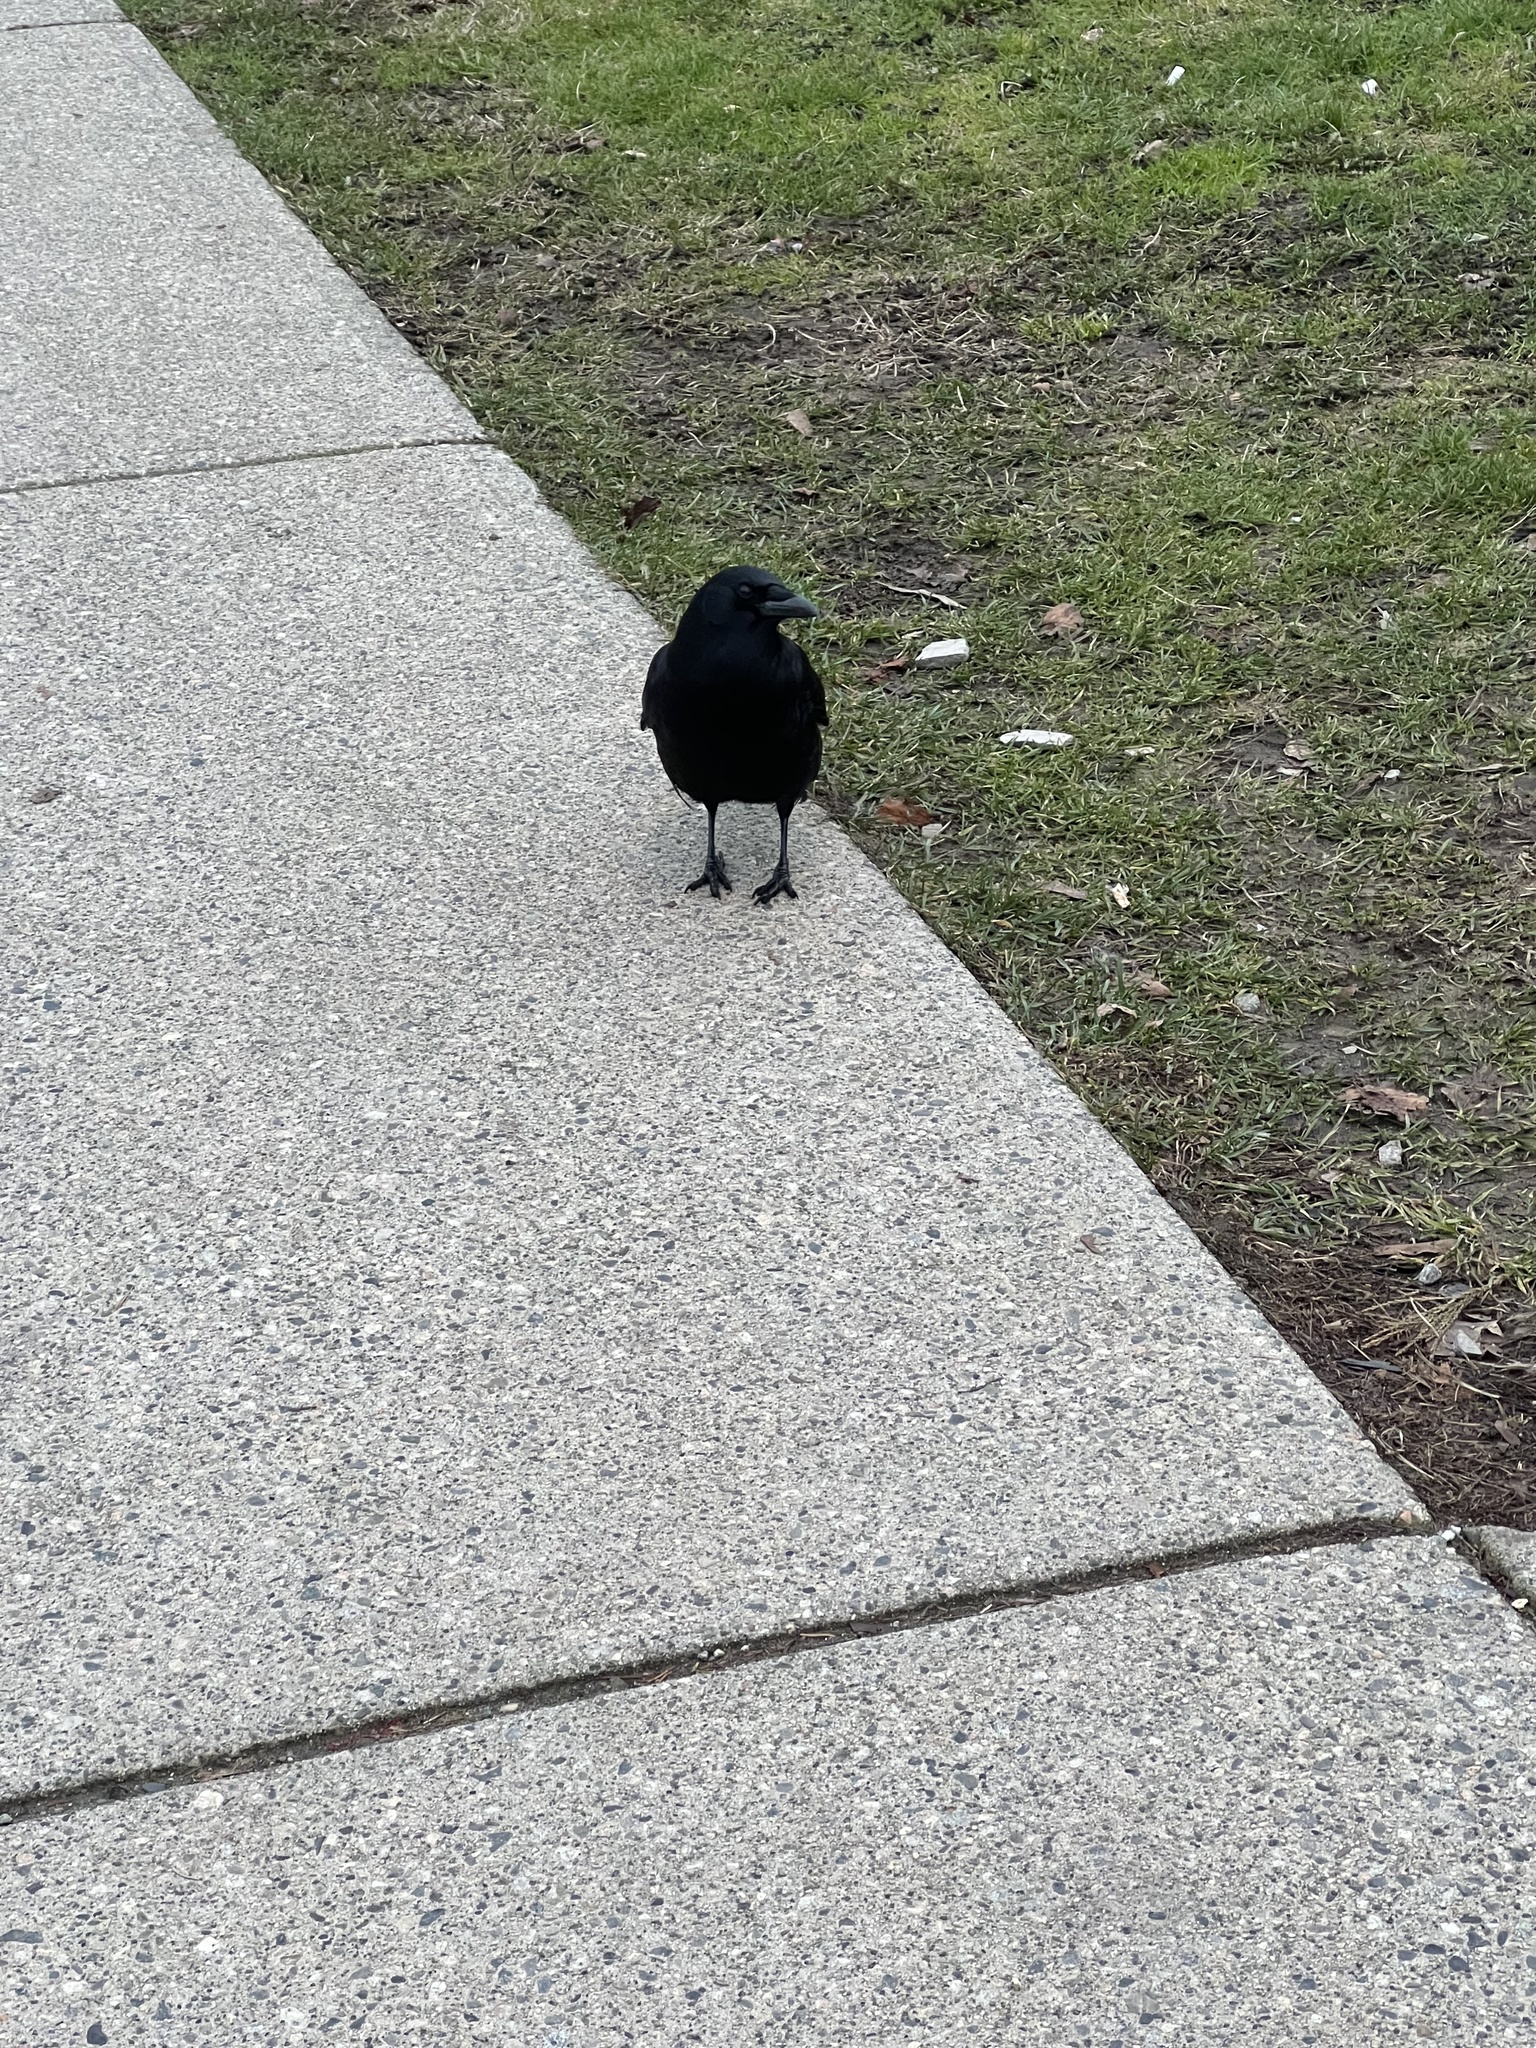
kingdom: Animalia
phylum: Chordata
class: Aves
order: Passeriformes
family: Corvidae
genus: Corvus
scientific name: Corvus brachyrhynchos
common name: American crow
